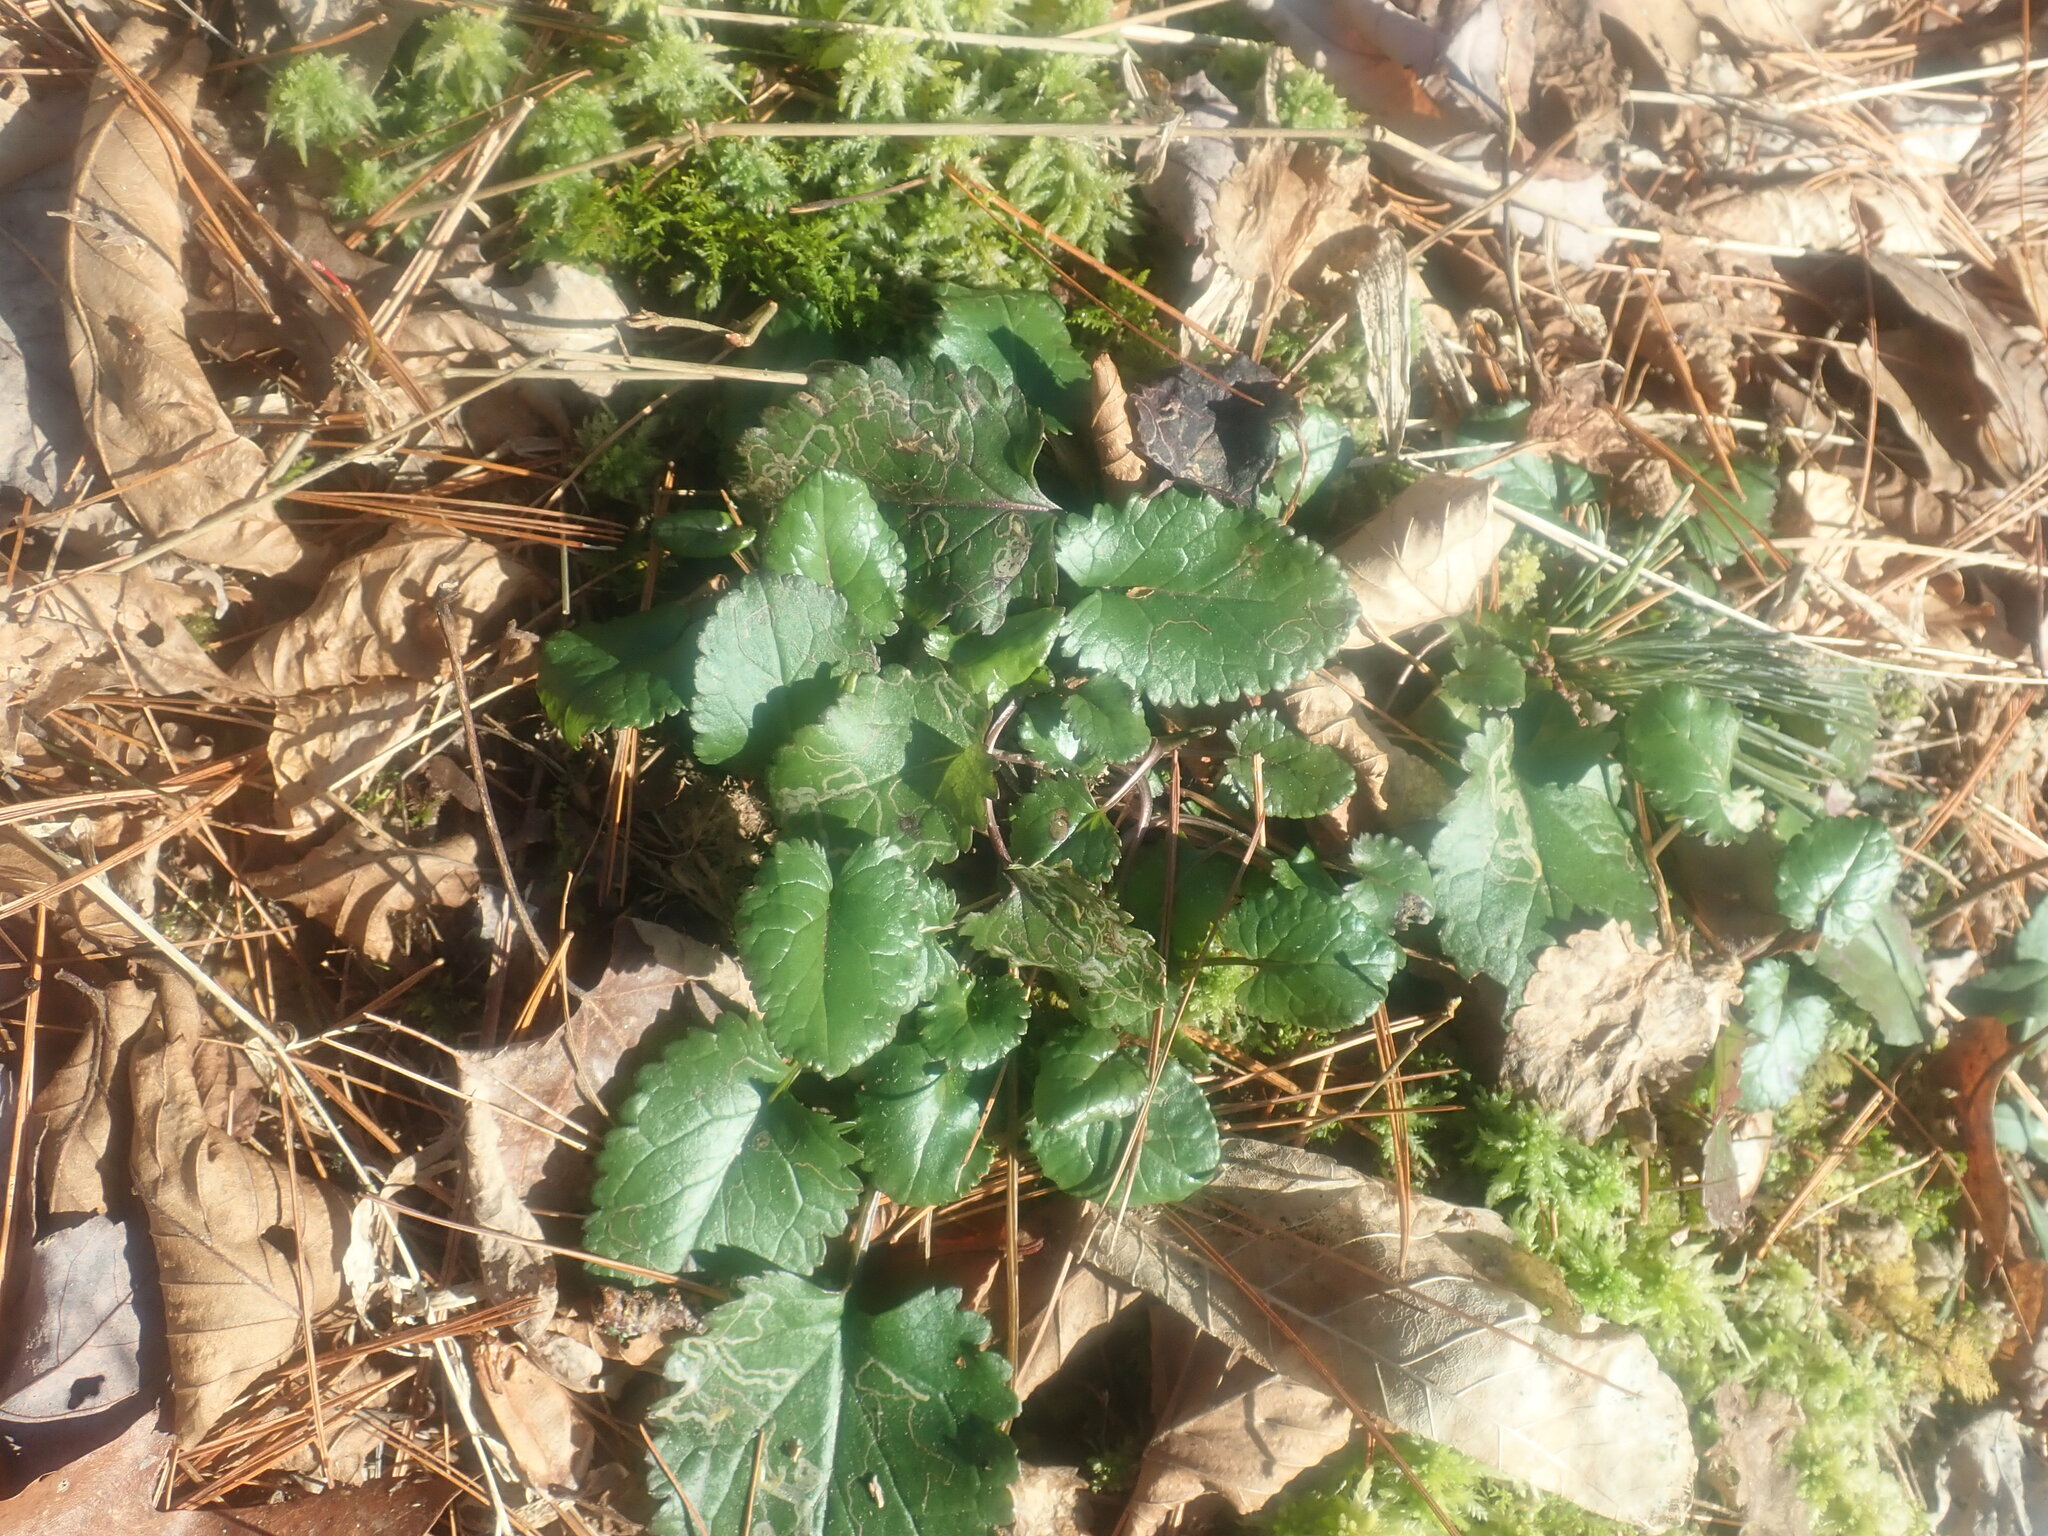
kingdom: Plantae
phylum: Tracheophyta
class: Magnoliopsida
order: Asterales
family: Asteraceae
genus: Packera
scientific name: Packera aurea
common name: Golden groundsel
